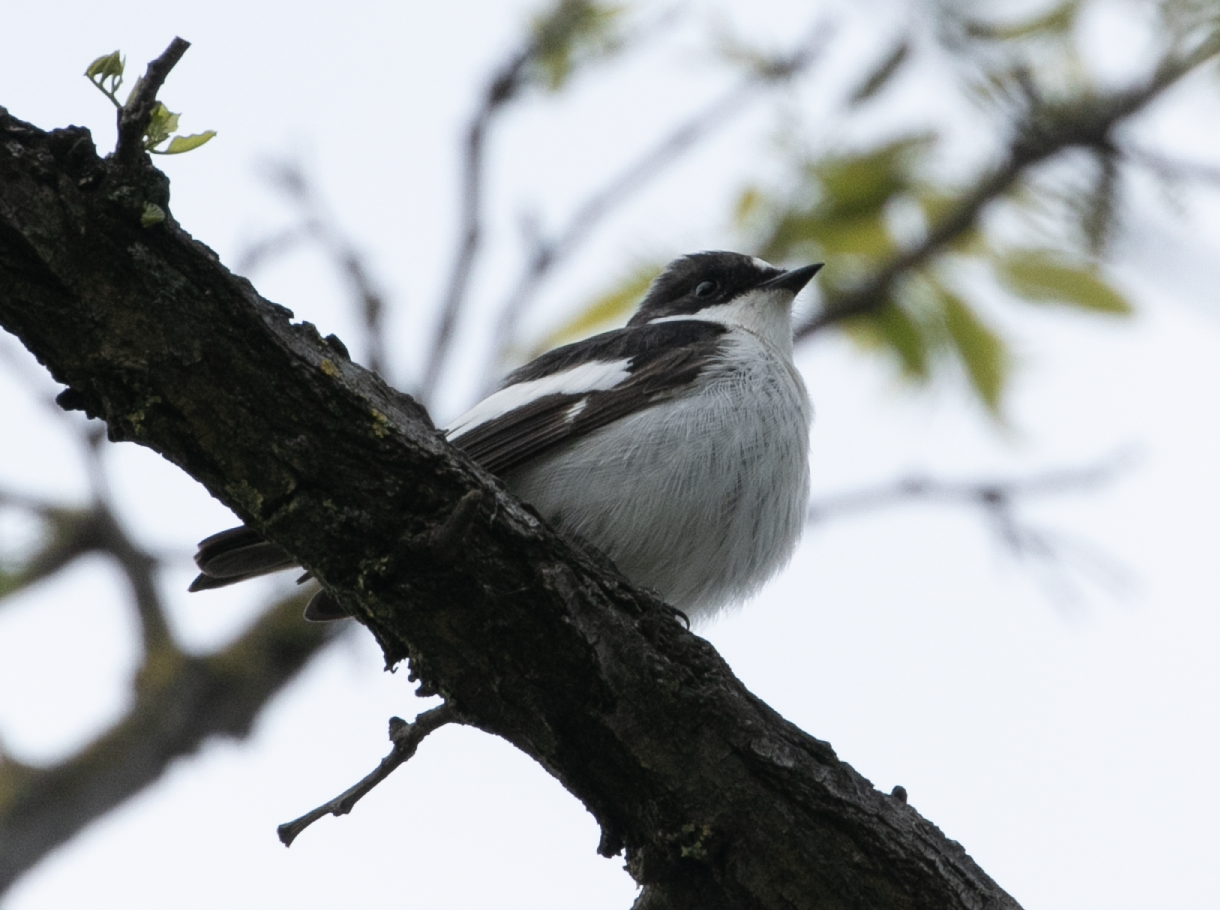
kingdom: Animalia
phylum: Chordata
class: Aves
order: Passeriformes
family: Muscicapidae
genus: Ficedula
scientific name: Ficedula hypoleuca
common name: European pied flycatcher
